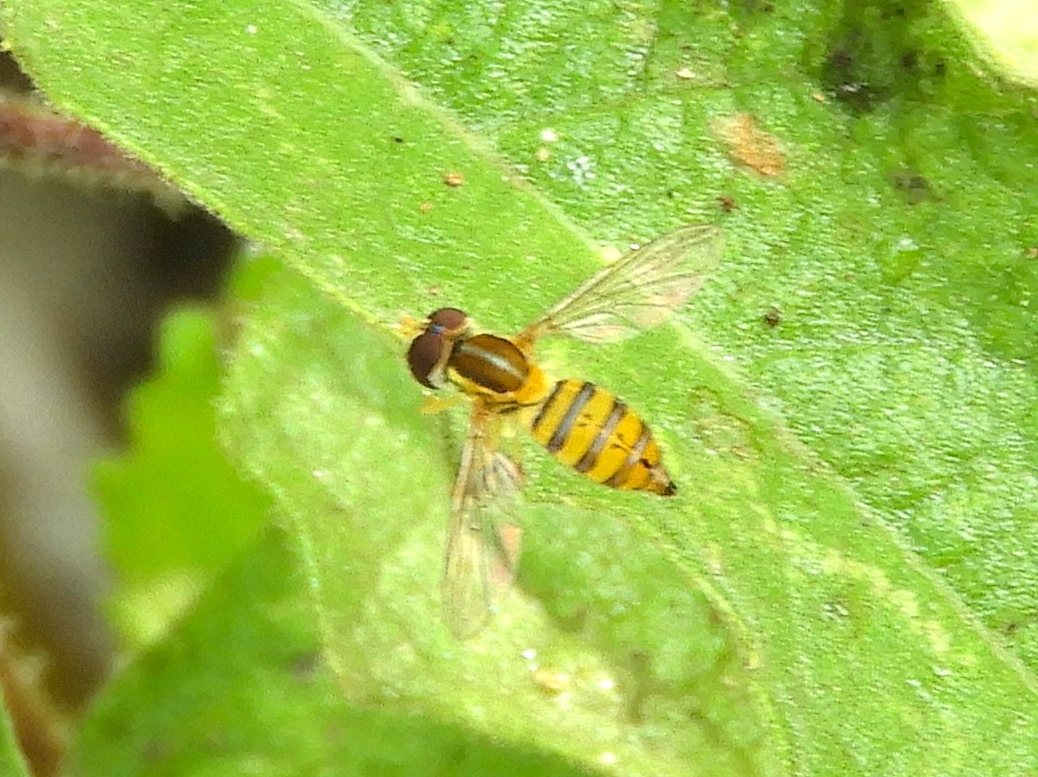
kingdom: Animalia
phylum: Arthropoda
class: Insecta
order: Diptera
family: Syrphidae
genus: Toxomerus
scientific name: Toxomerus
